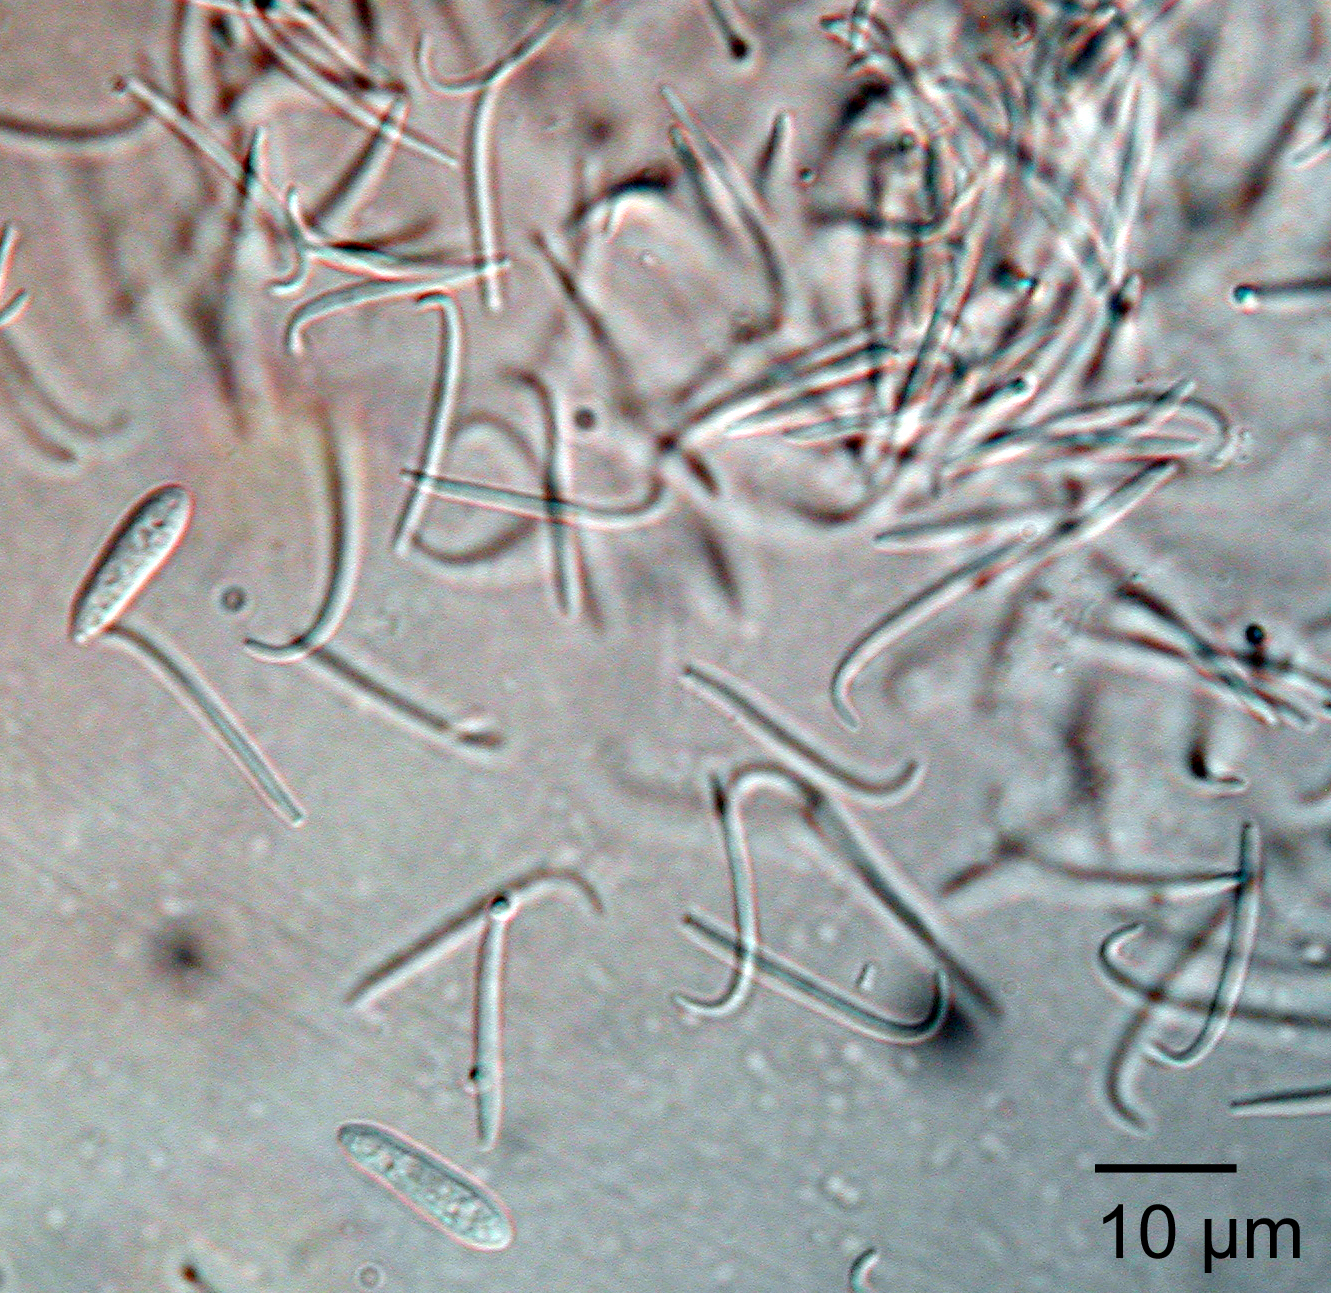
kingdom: Fungi
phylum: Ascomycota
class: Sordariomycetes
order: Diaporthales
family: Diaporthaceae
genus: Diaporthe
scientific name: Diaporthe sophorae
